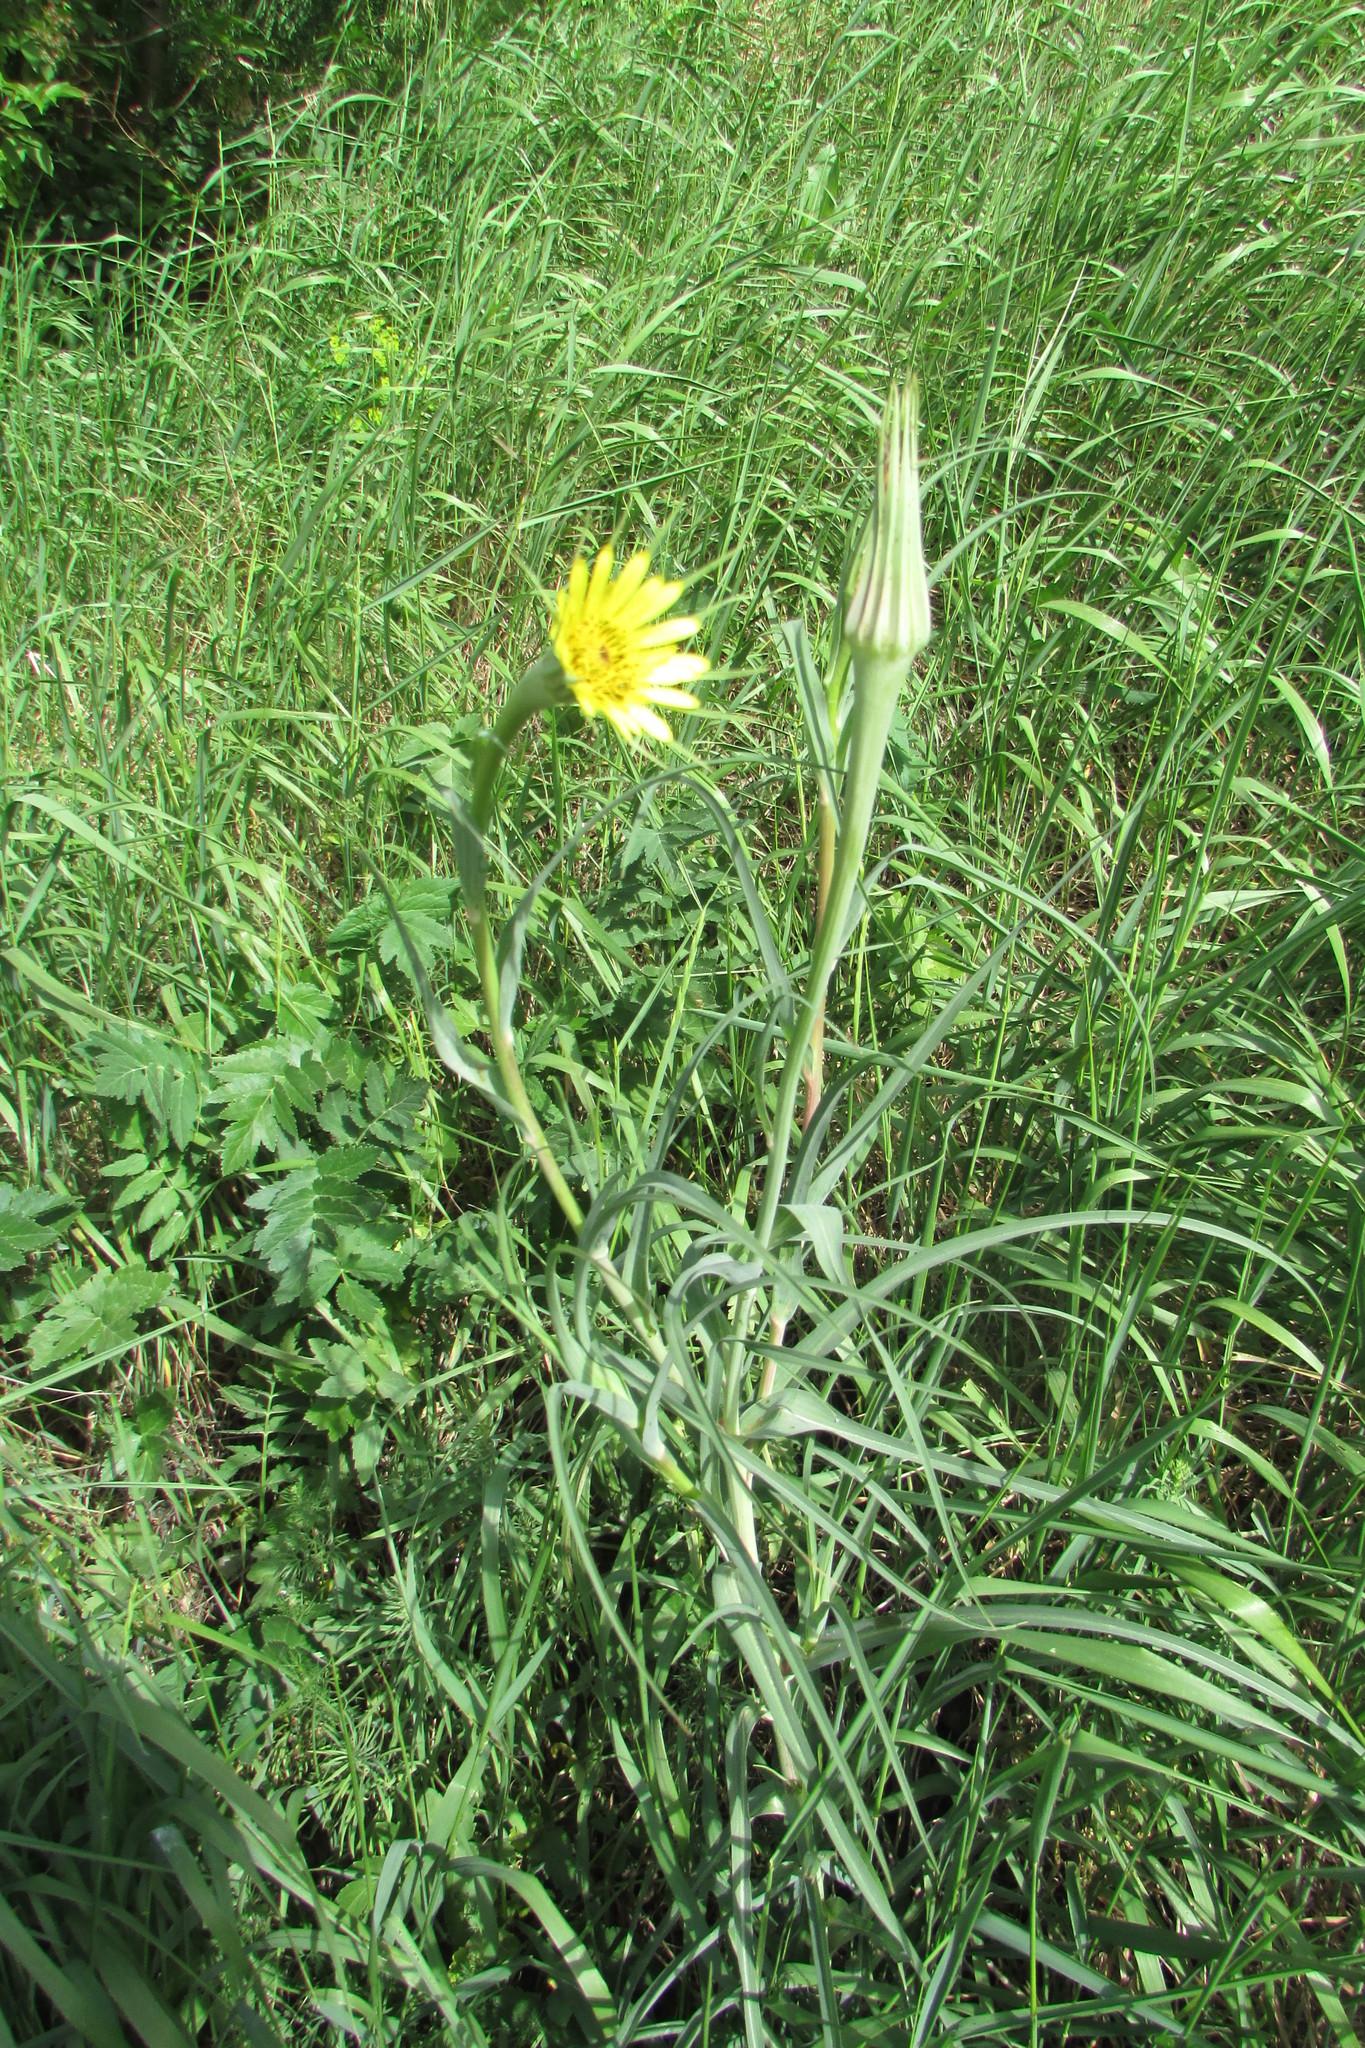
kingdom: Plantae
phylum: Tracheophyta
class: Magnoliopsida
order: Asterales
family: Asteraceae
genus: Tragopogon
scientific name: Tragopogon dubius
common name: Yellow salsify
